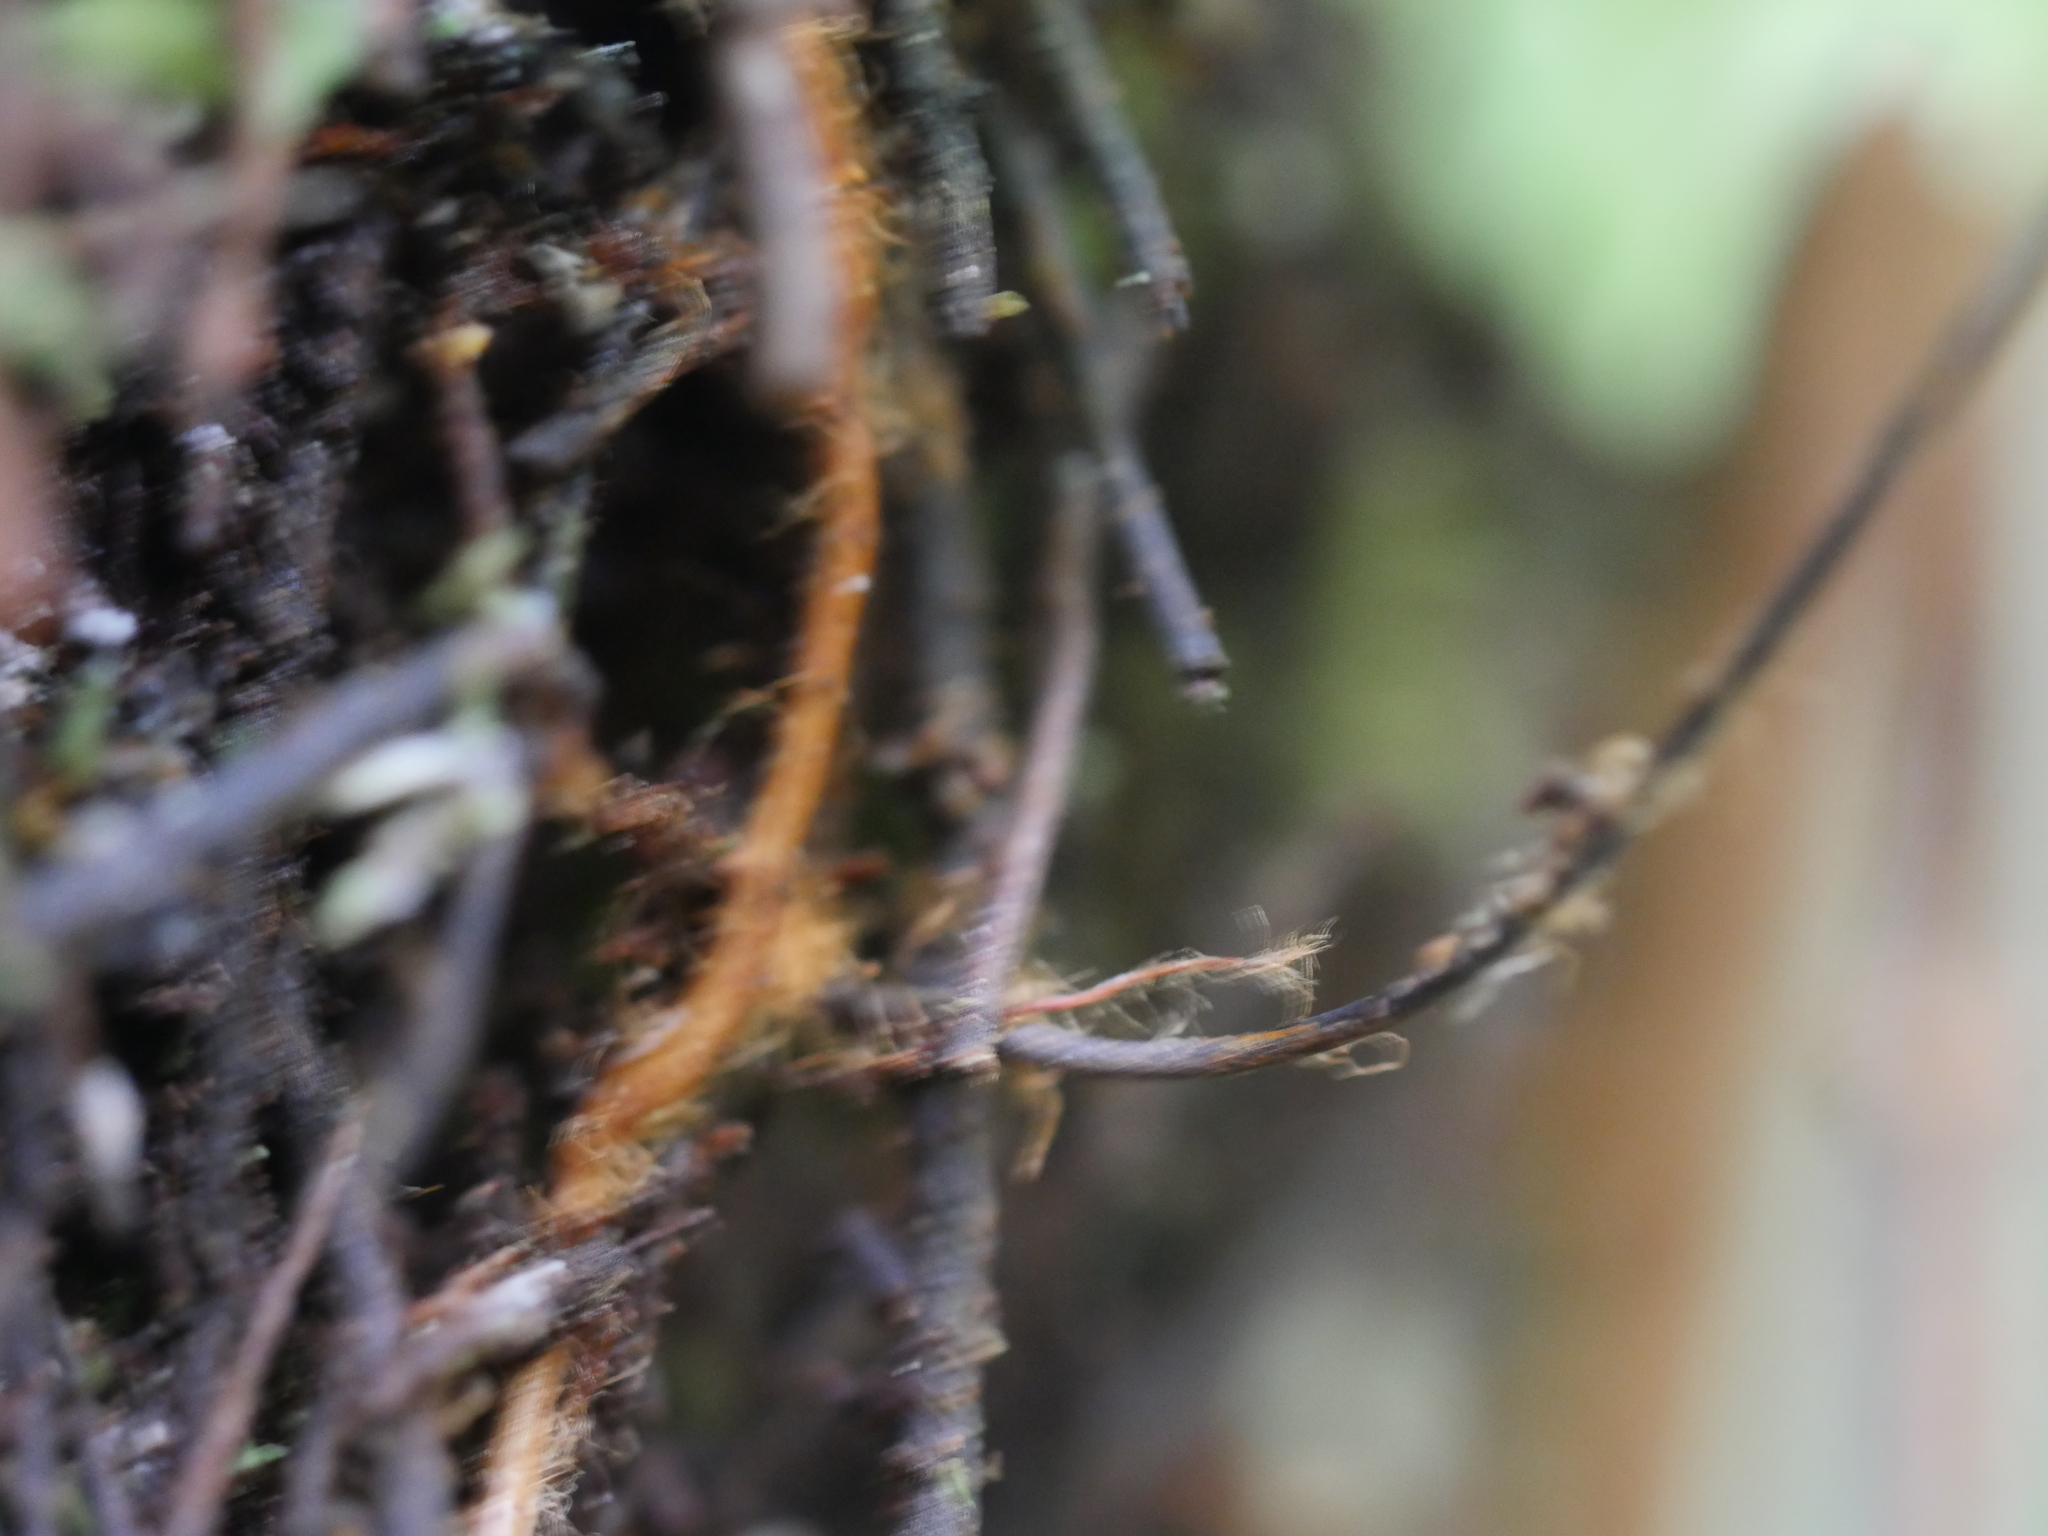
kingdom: Plantae
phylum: Tracheophyta
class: Polypodiopsida
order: Hymenophyllales
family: Hymenophyllaceae
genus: Hymenophyllum
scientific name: Hymenophyllum flabellatum
